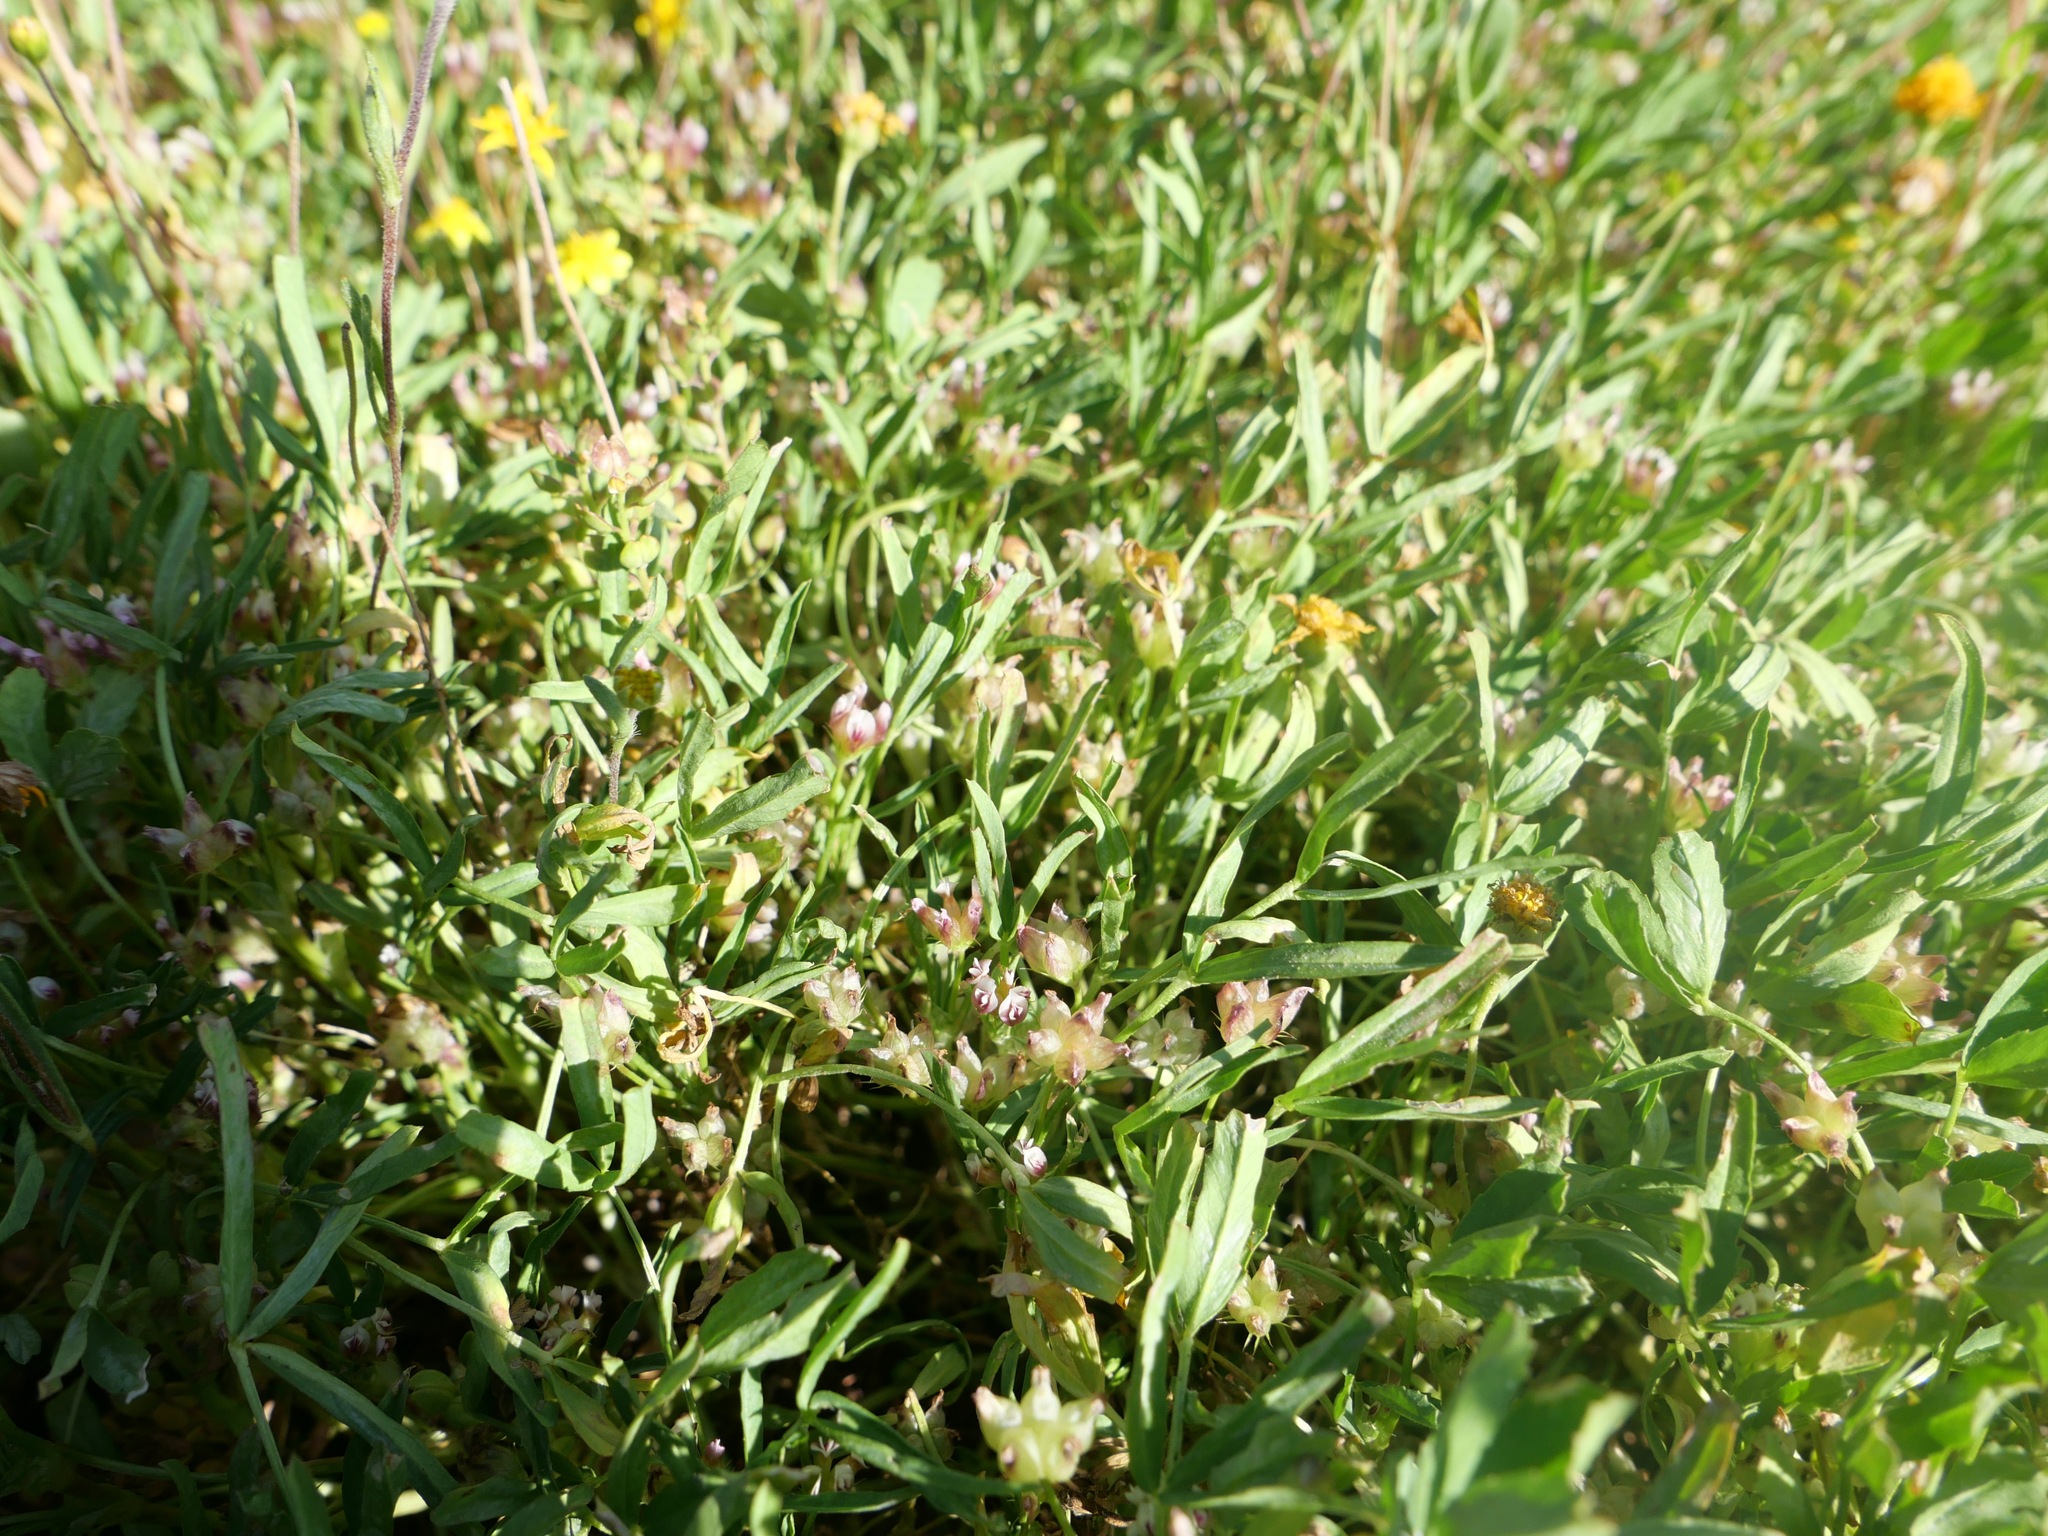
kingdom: Plantae
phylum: Tracheophyta
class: Magnoliopsida
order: Fabales
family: Fabaceae
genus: Trifolium
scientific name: Trifolium depauperatum
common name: Poverty clover
